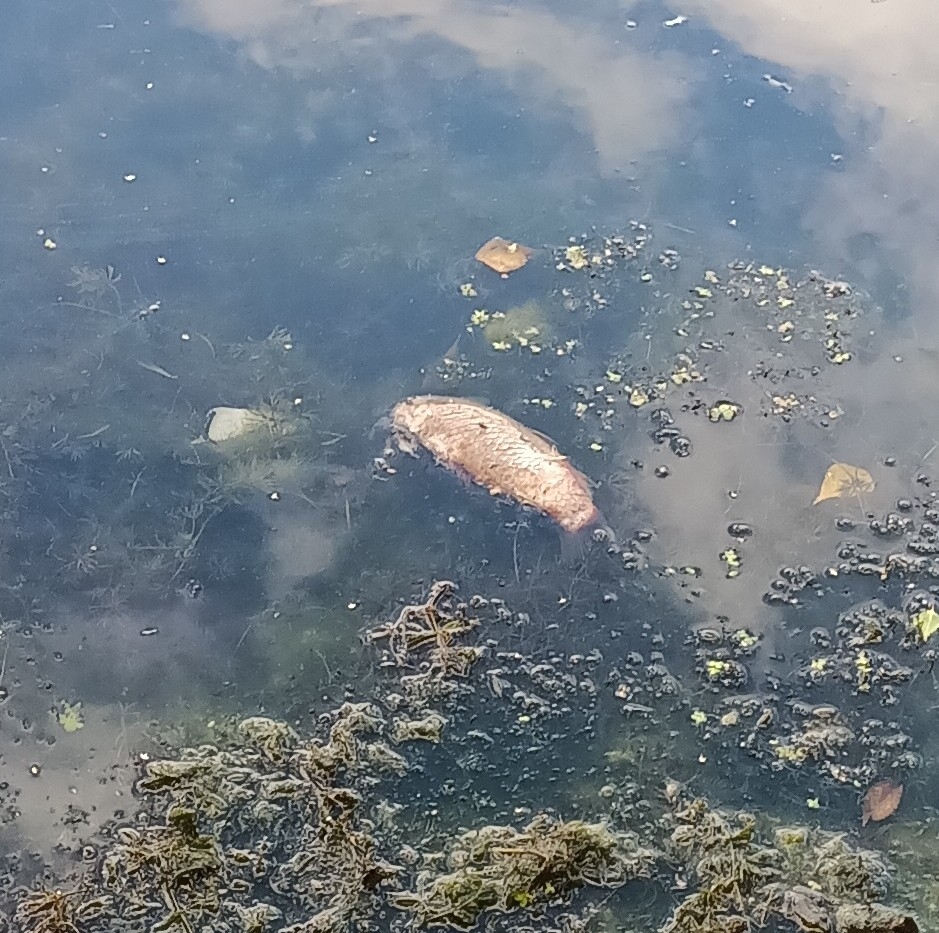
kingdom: Animalia
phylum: Chordata
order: Cypriniformes
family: Cyprinidae
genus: Carassius
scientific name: Carassius gibelio
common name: Prussian carp
